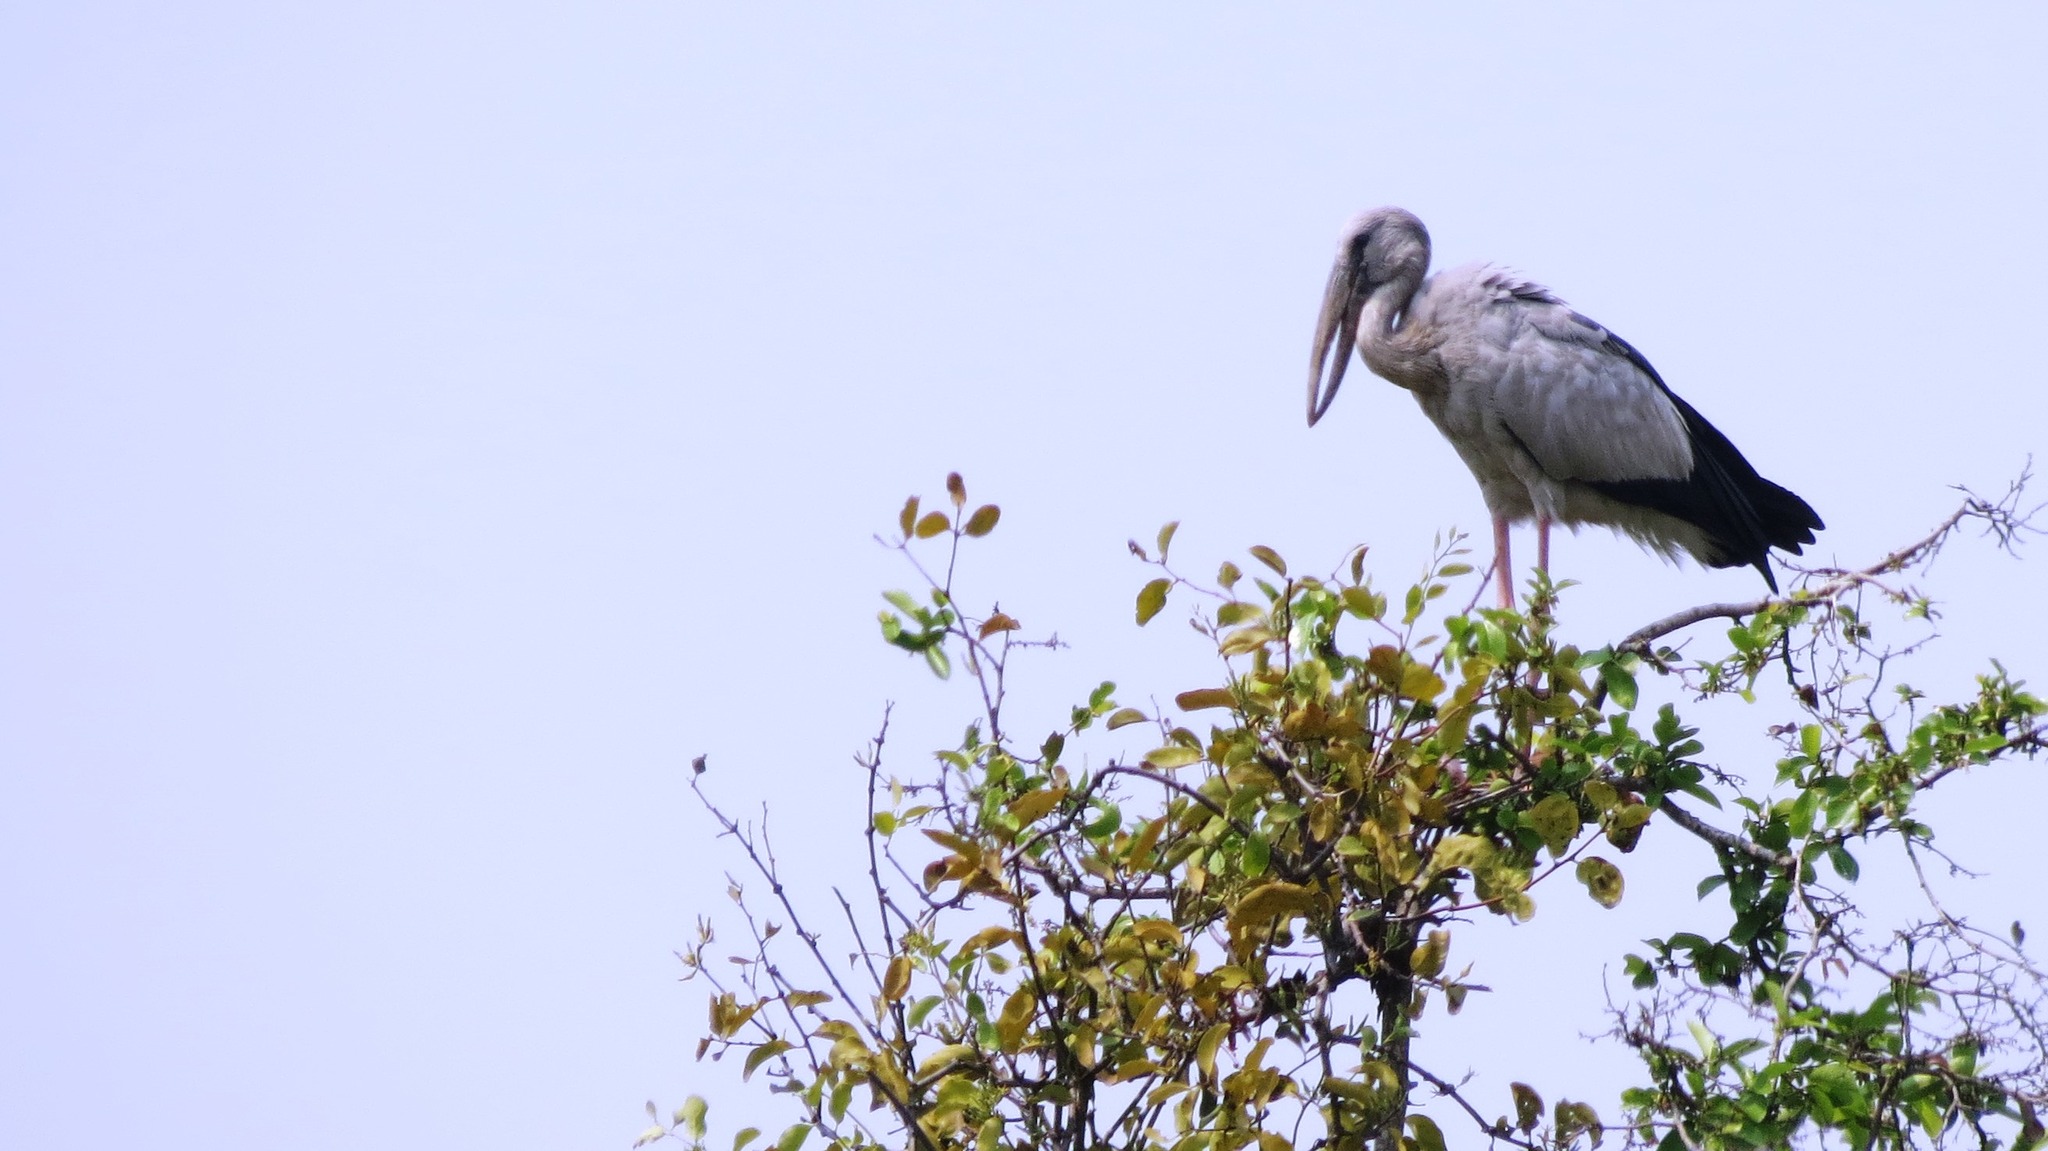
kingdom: Animalia
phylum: Chordata
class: Aves
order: Ciconiiformes
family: Ciconiidae
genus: Anastomus
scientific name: Anastomus oscitans
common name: Asian openbill
